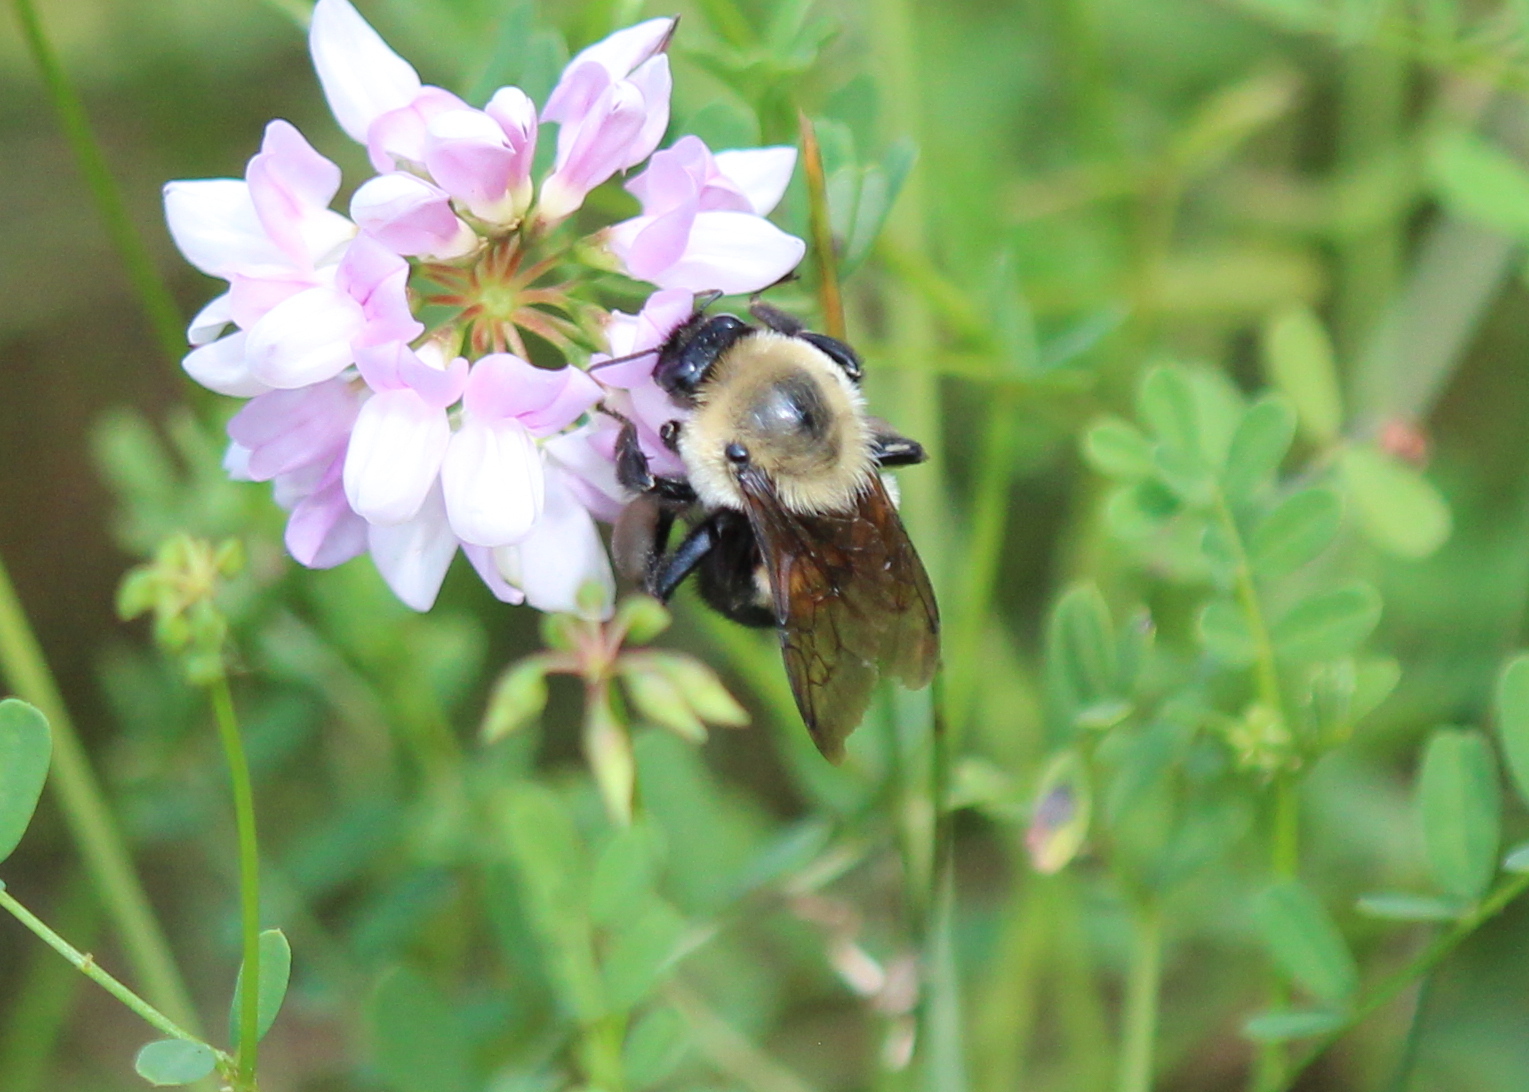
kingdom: Animalia
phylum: Arthropoda
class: Insecta
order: Hymenoptera
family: Apidae
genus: Bombus
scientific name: Bombus griseocollis
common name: Brown-belted bumble bee
